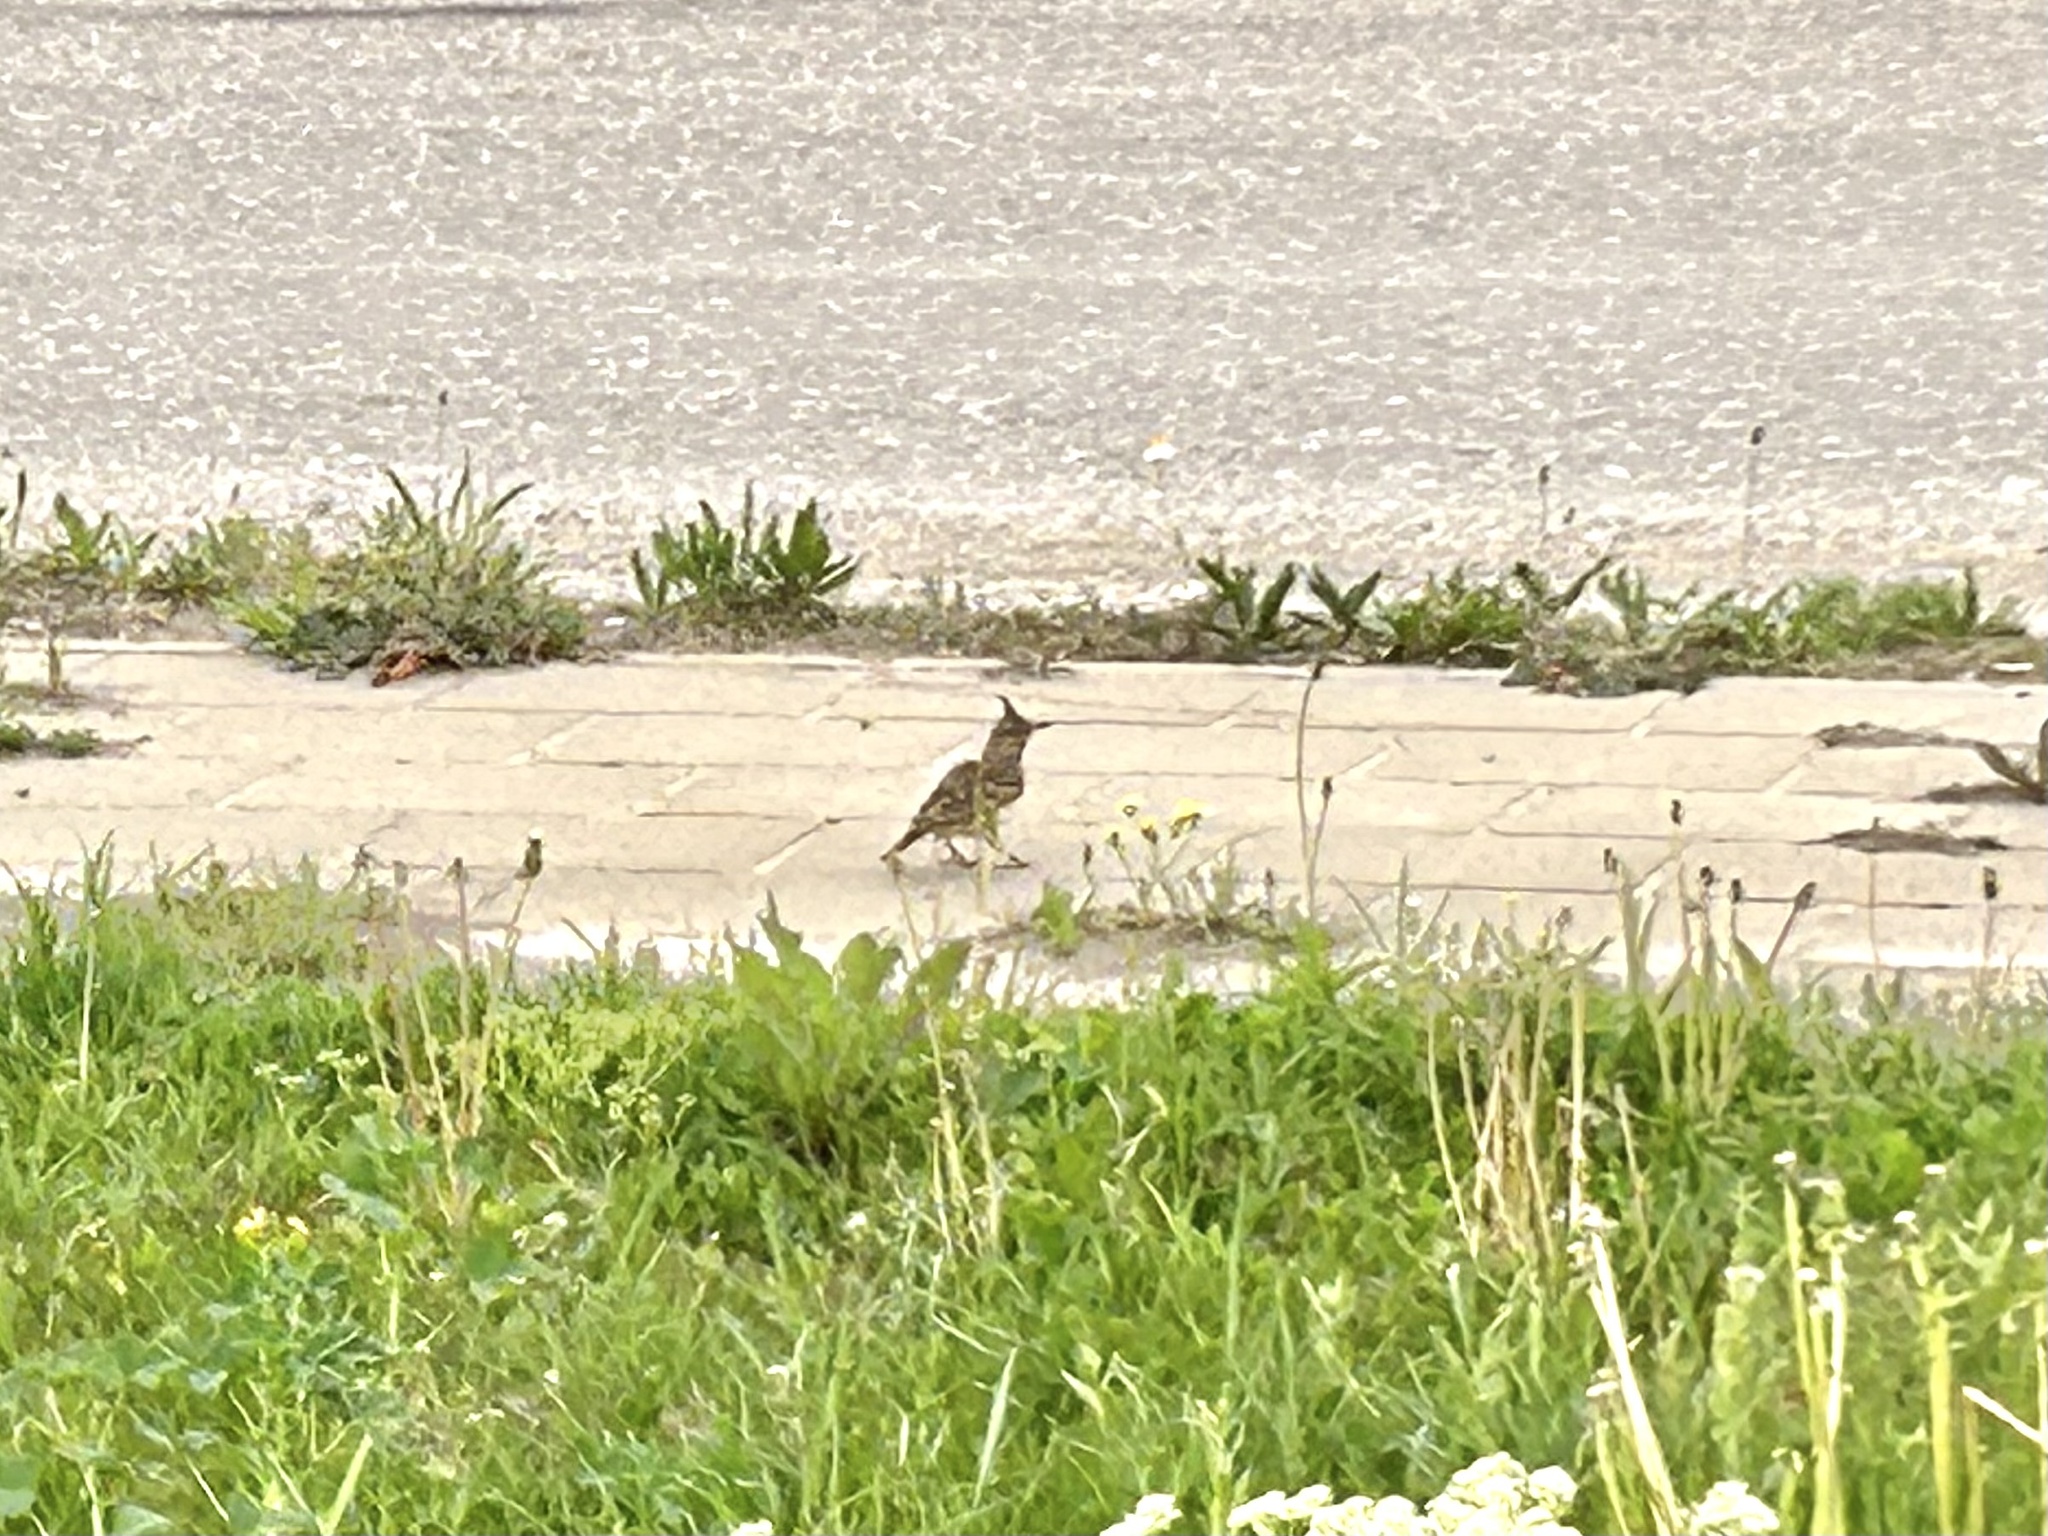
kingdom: Animalia
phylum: Chordata
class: Aves
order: Passeriformes
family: Alaudidae
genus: Galerida
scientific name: Galerida cristata
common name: Crested lark
